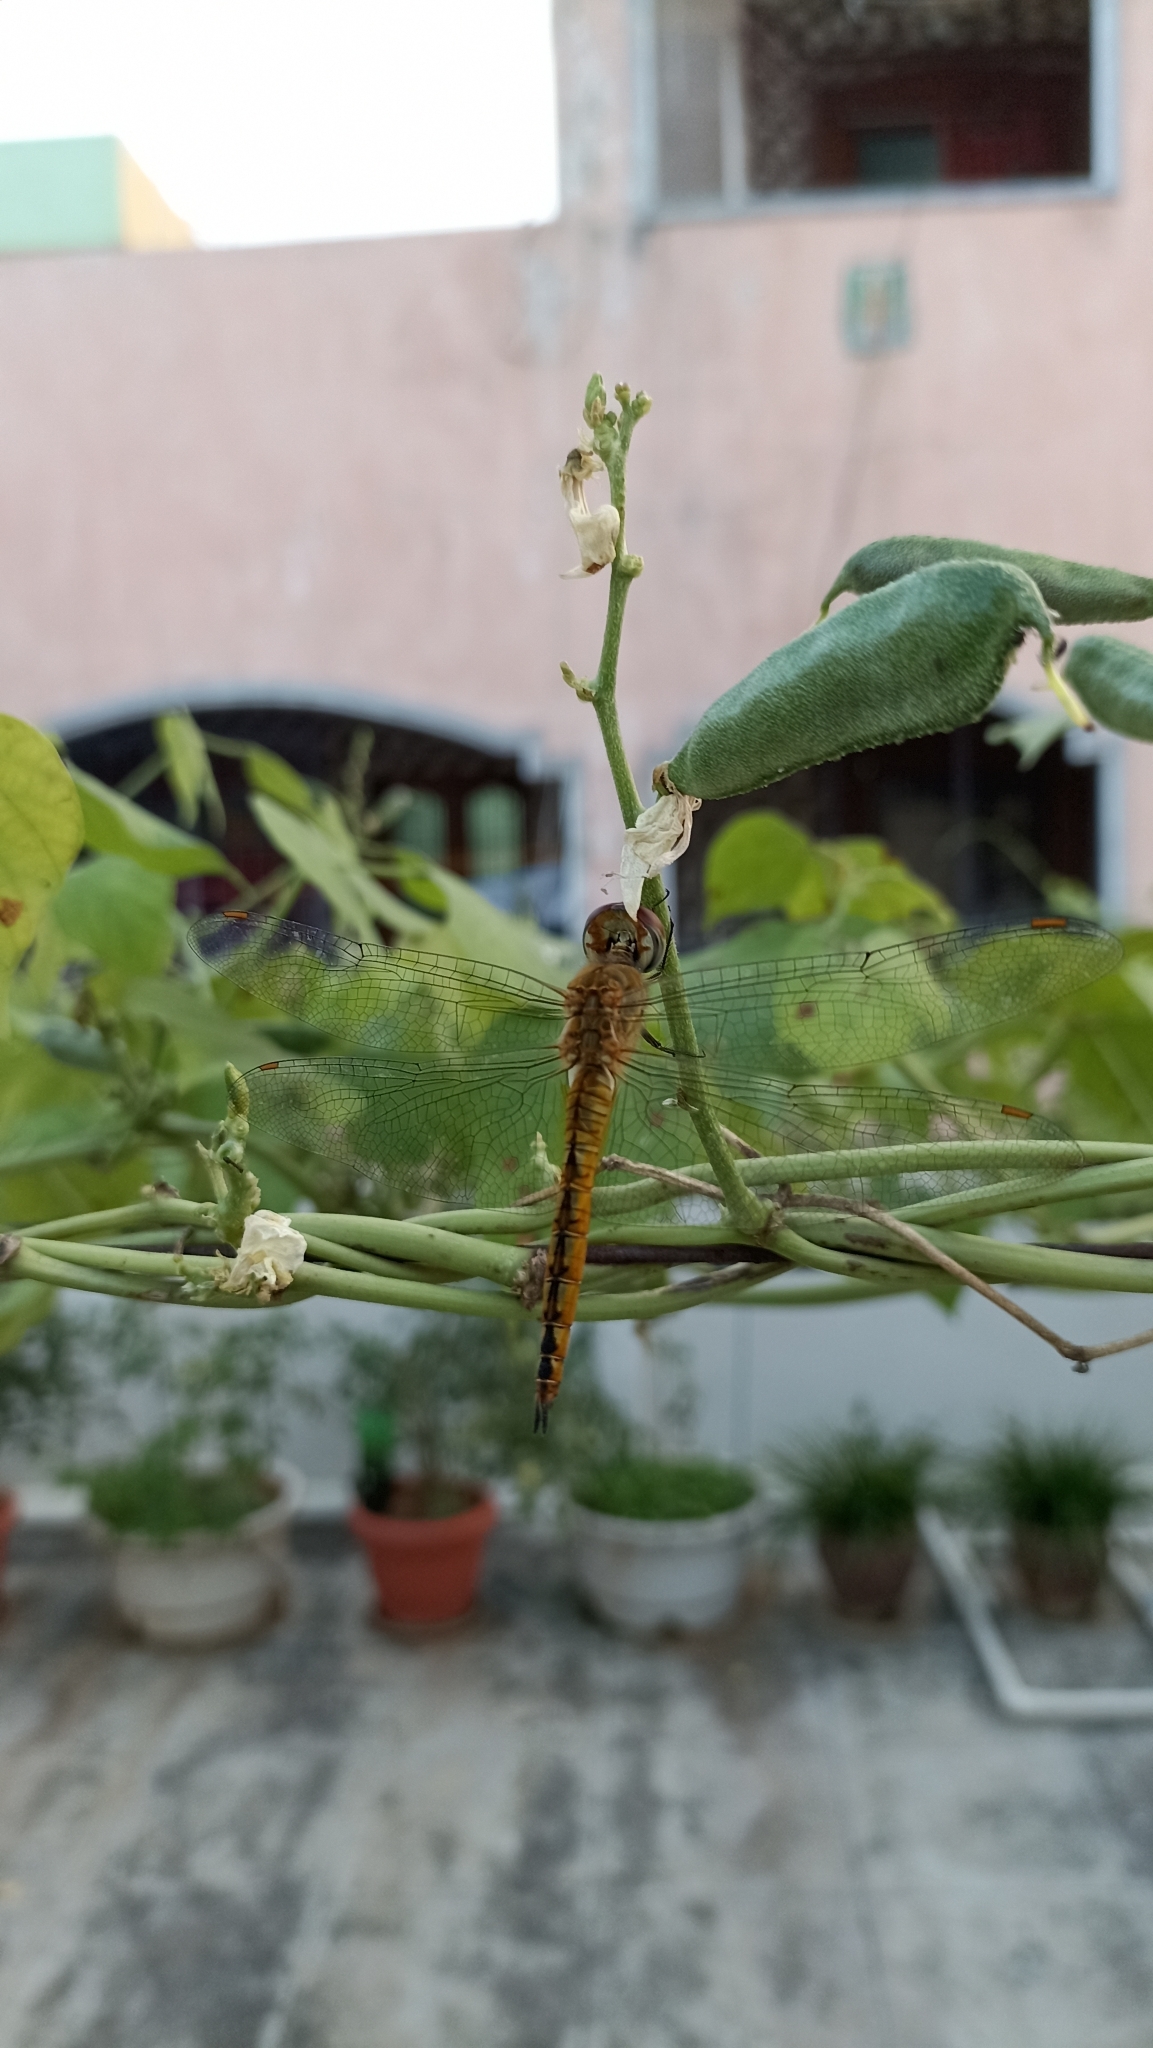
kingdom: Animalia
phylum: Arthropoda
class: Insecta
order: Odonata
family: Libellulidae
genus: Pantala
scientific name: Pantala flavescens
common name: Wandering glider
